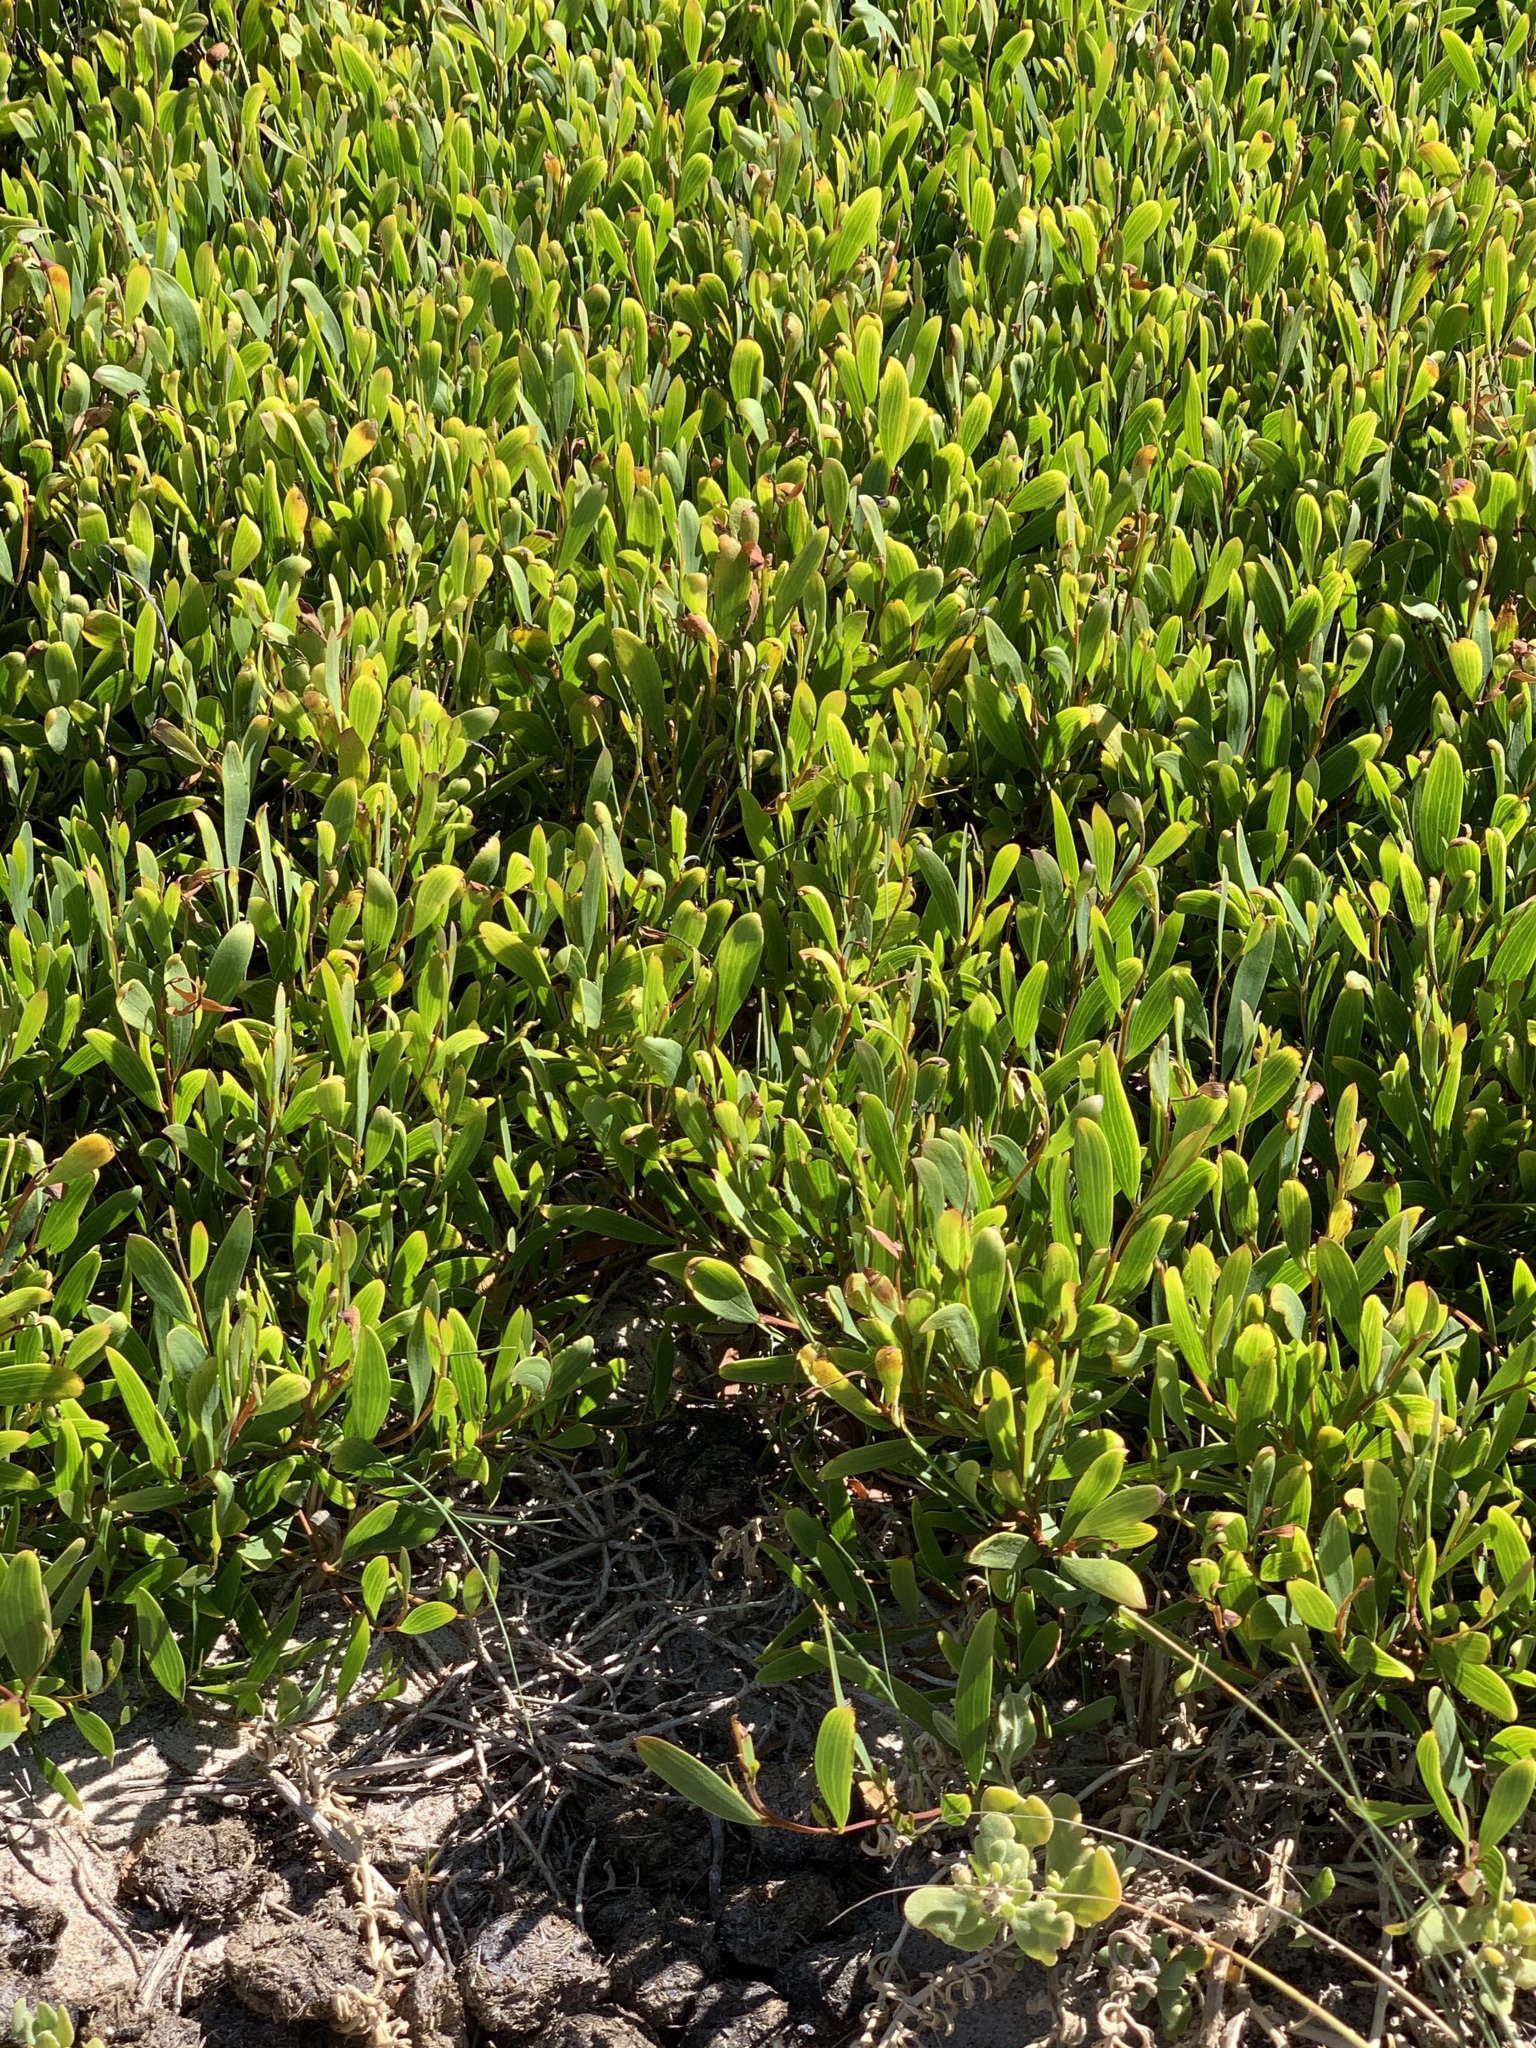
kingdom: Plantae
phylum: Tracheophyta
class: Magnoliopsida
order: Fabales
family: Fabaceae
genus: Acacia
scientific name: Acacia cyclops
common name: Coastal wattle
